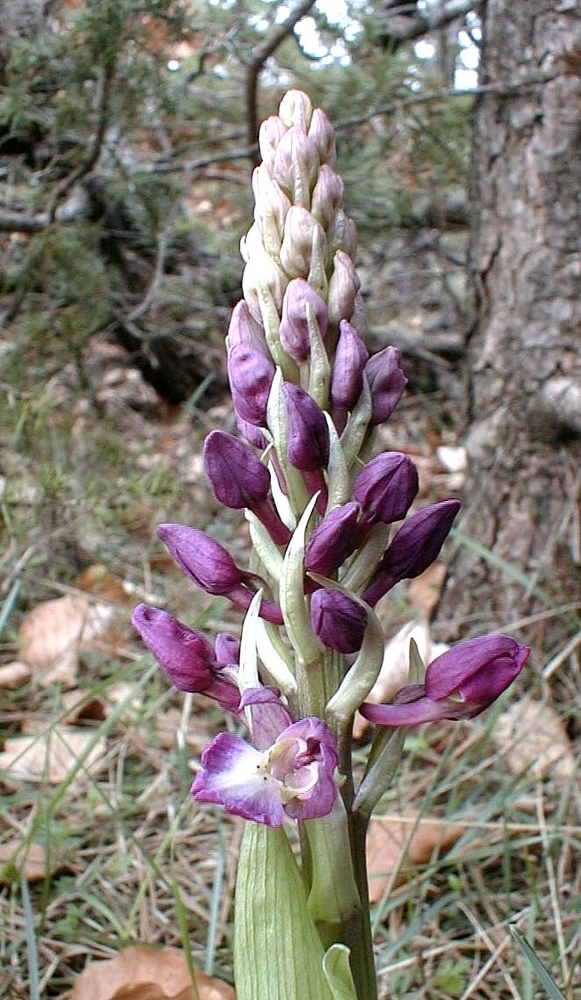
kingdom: Plantae
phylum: Tracheophyta
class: Liliopsida
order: Asparagales
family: Orchidaceae
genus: Orchis
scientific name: Orchis mascula
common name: Early-purple orchid
